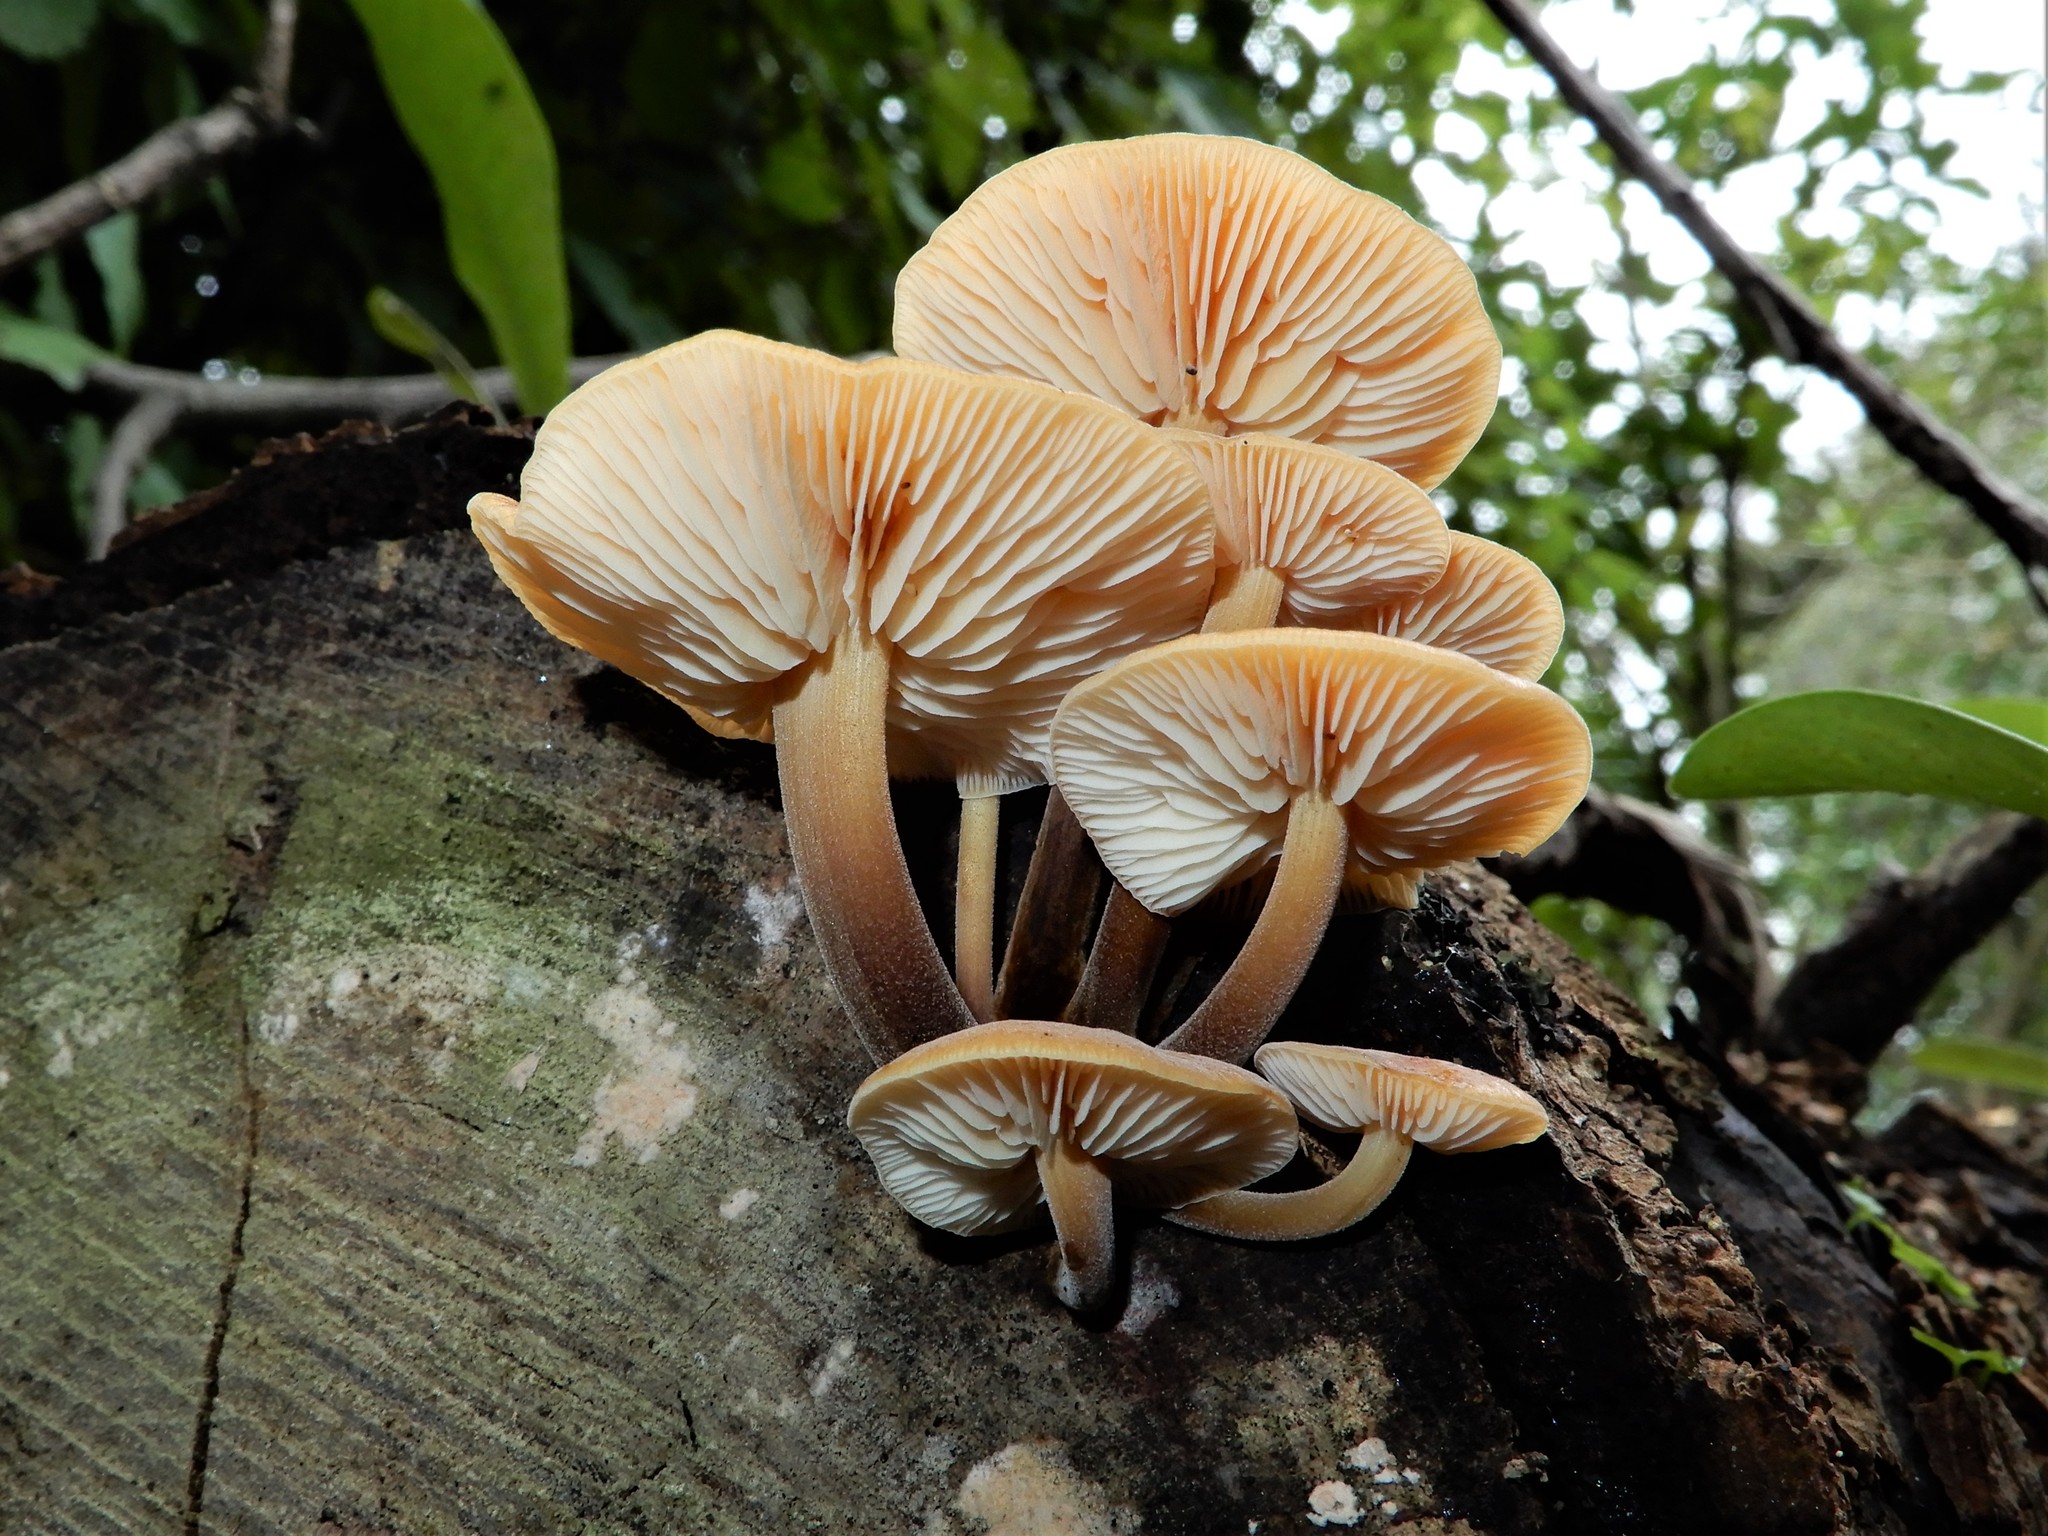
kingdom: Fungi
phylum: Basidiomycota
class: Agaricomycetes
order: Agaricales
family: Physalacriaceae
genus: Flammulina
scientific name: Flammulina velutipes
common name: Velvet shank
